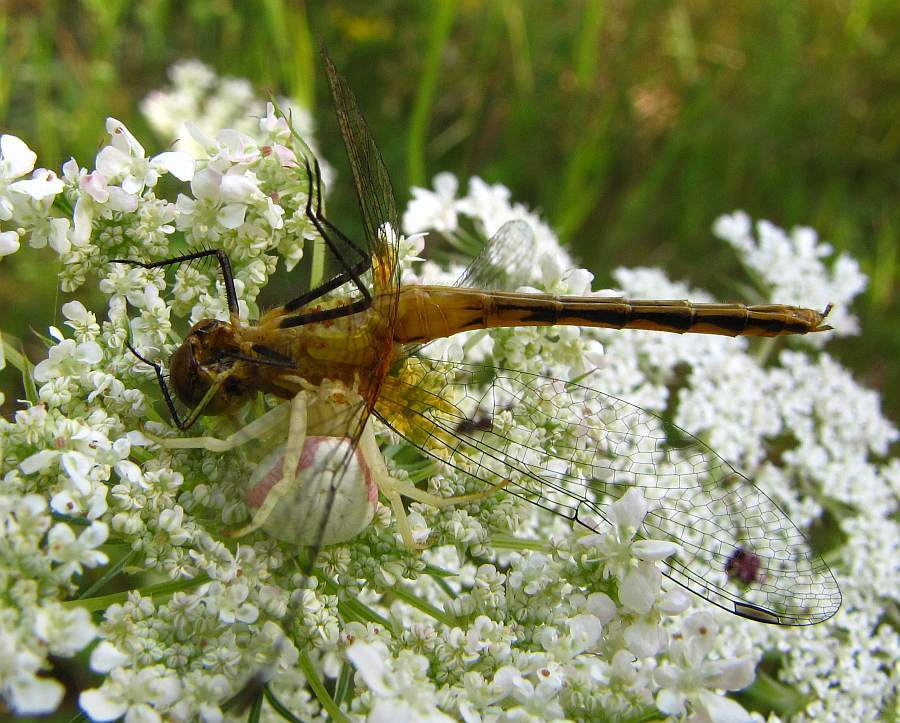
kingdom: Animalia
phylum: Arthropoda
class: Arachnida
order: Araneae
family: Thomisidae
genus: Misumena
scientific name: Misumena vatia
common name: Goldenrod crab spider
